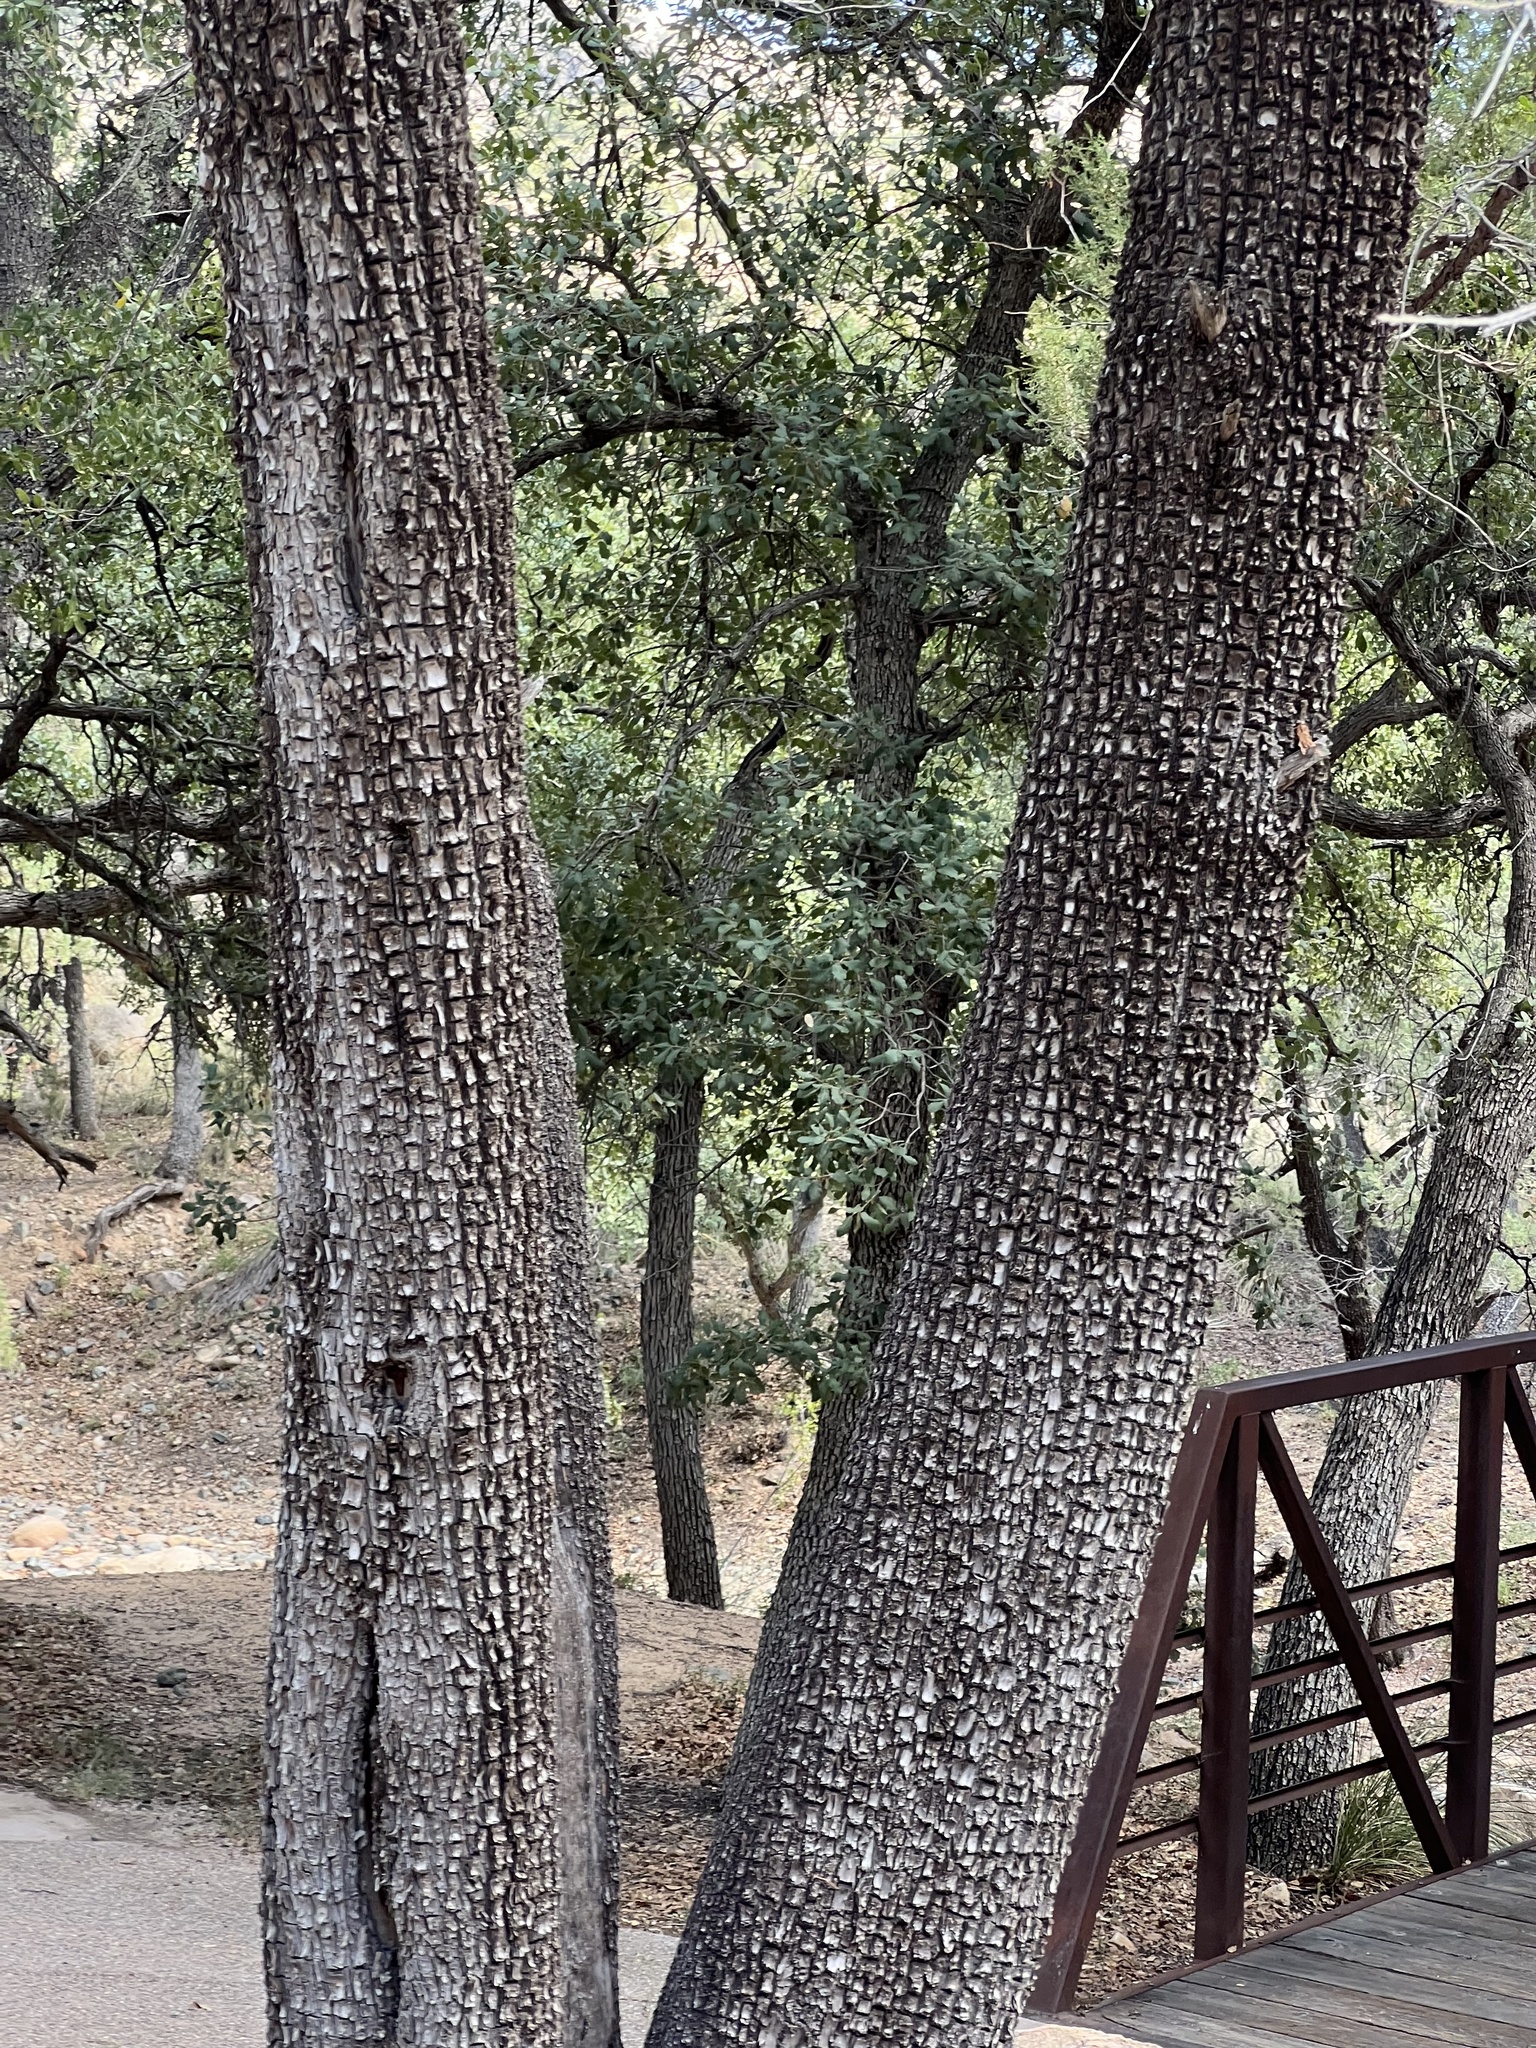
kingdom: Plantae
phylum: Tracheophyta
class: Pinopsida
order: Pinales
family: Cupressaceae
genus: Juniperus
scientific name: Juniperus deppeana
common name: Alligator juniper
